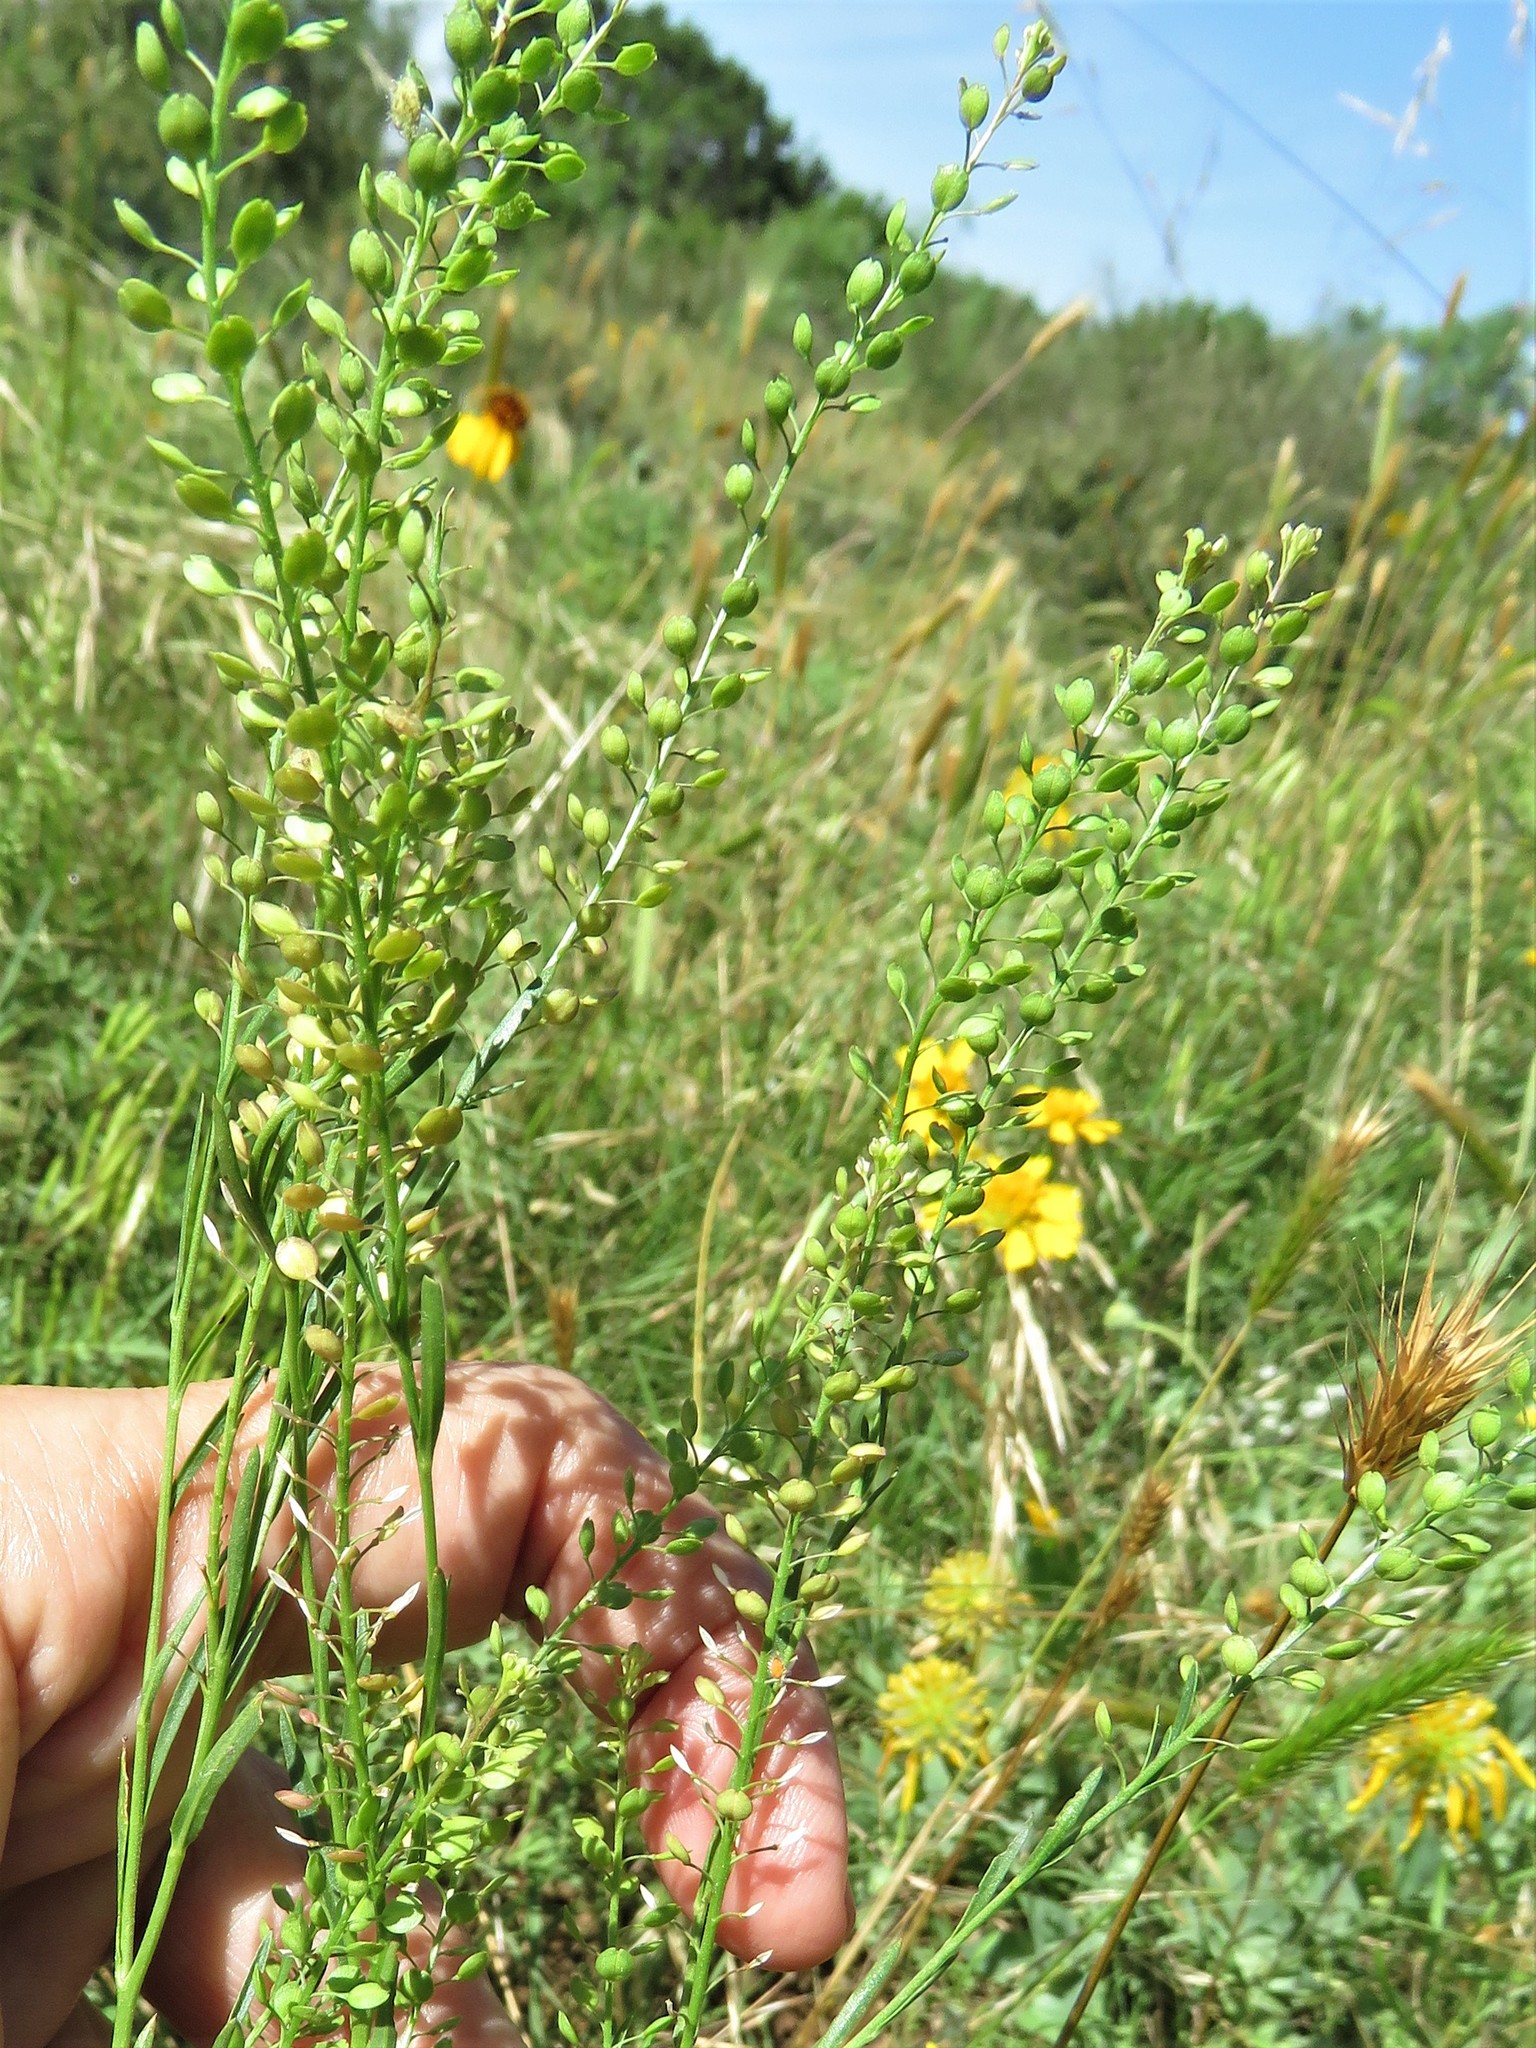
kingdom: Plantae
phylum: Tracheophyta
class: Magnoliopsida
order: Brassicales
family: Brassicaceae
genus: Lepidium
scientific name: Lepidium virginicum
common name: Least pepperwort
